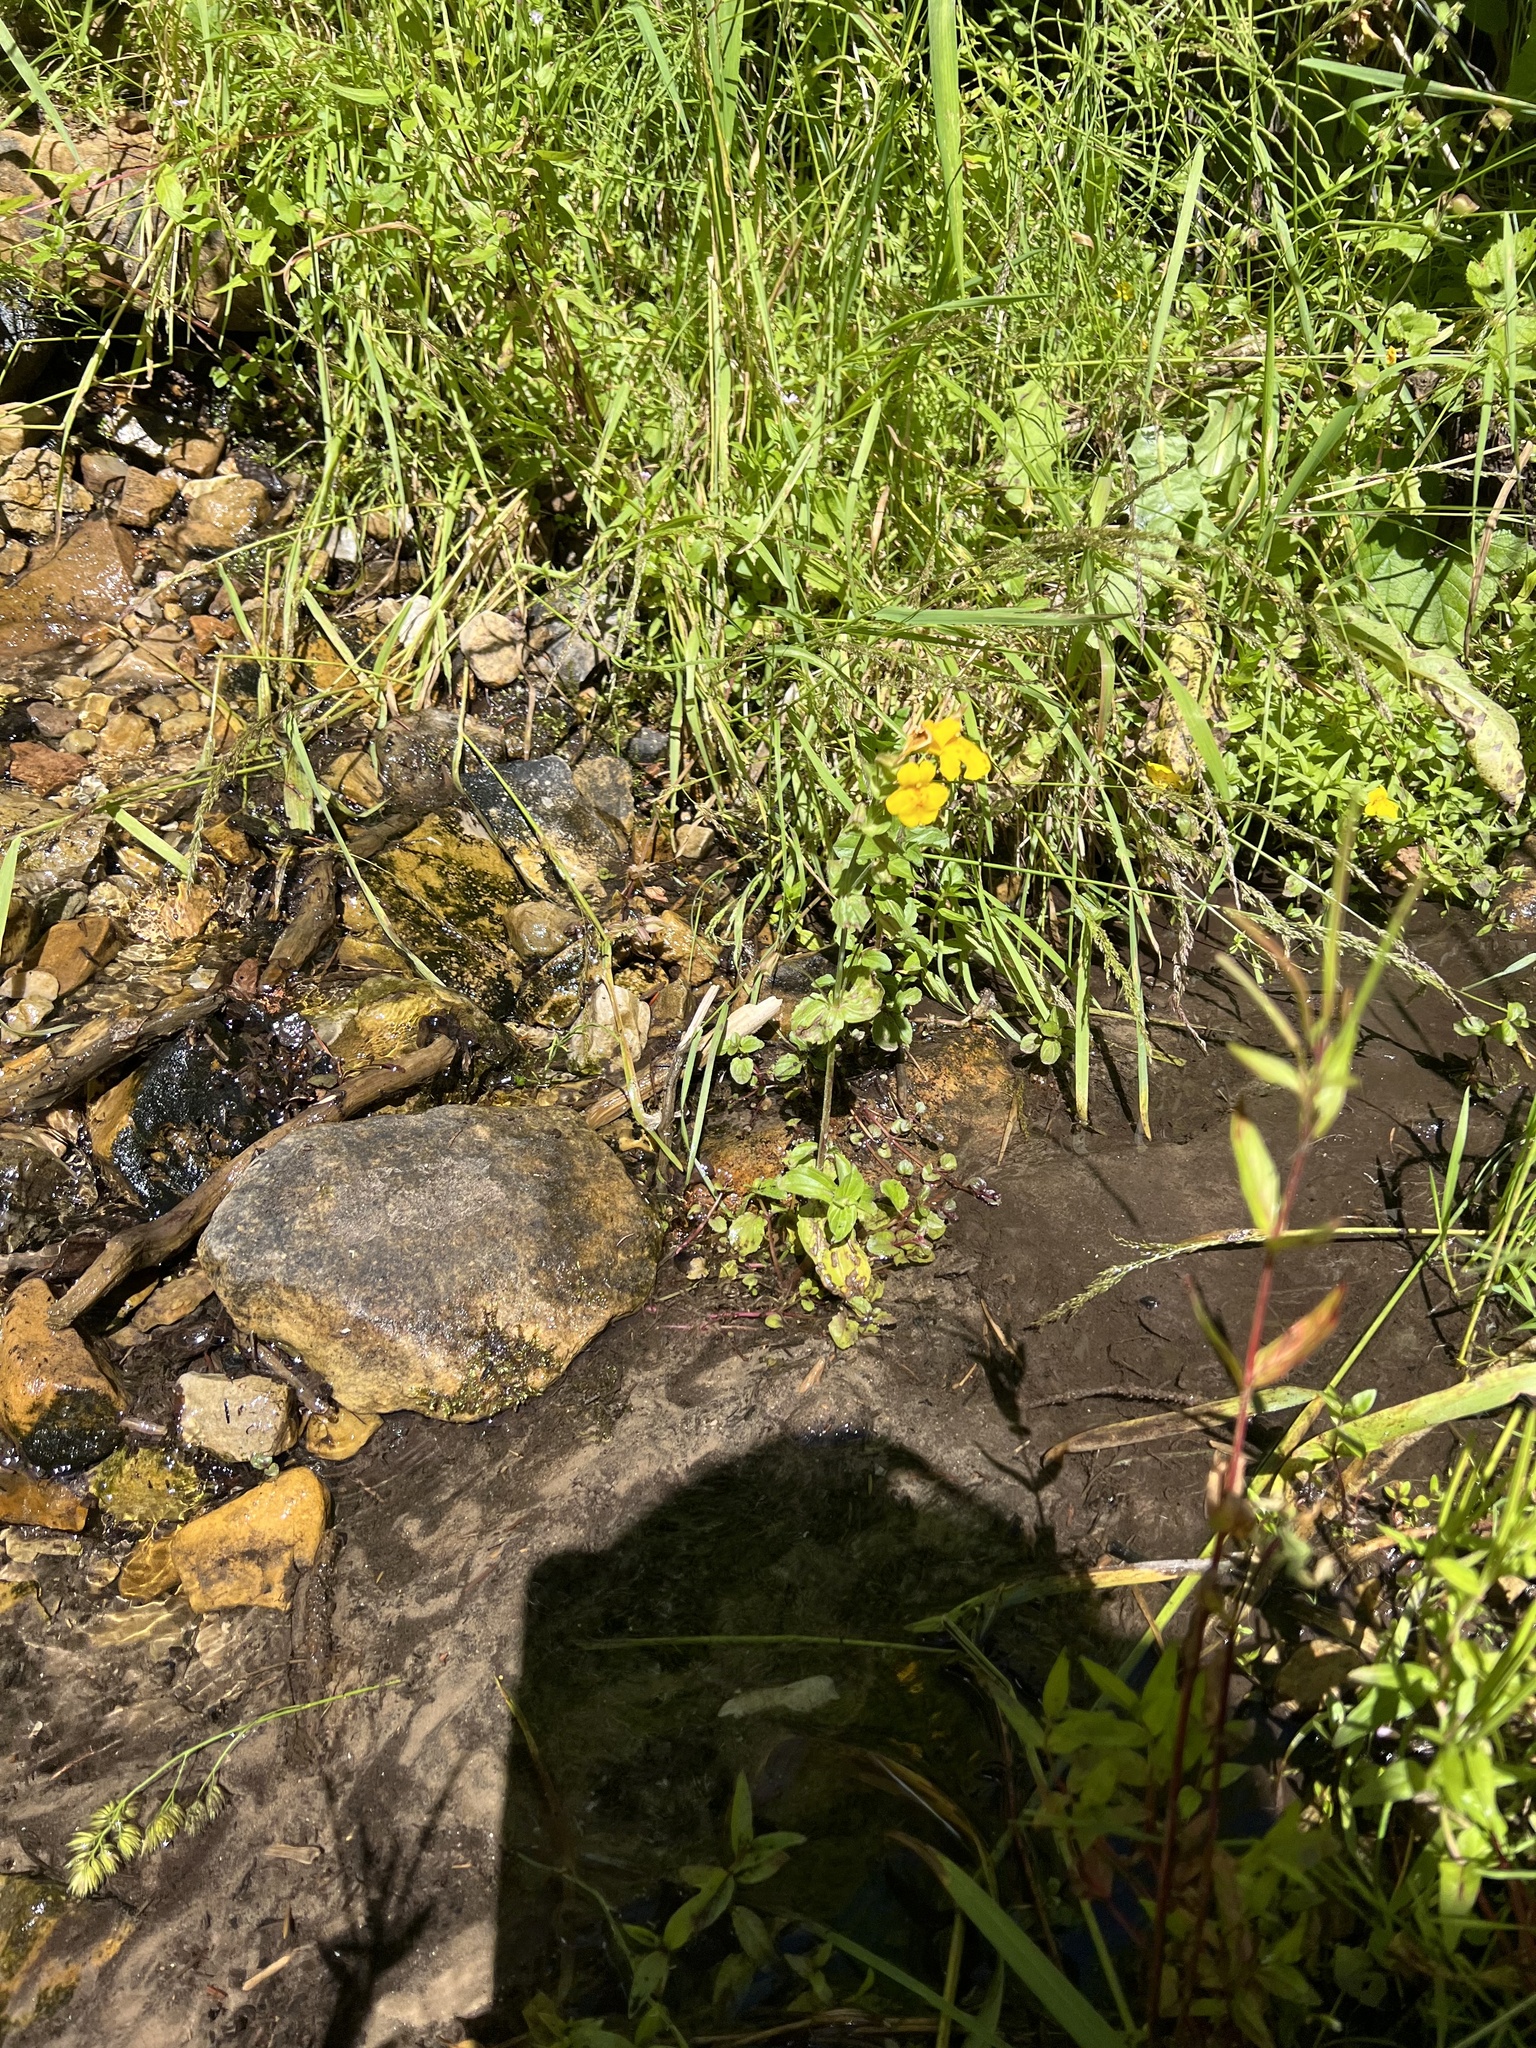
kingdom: Plantae
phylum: Tracheophyta
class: Magnoliopsida
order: Lamiales
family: Phrymaceae
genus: Erythranthe
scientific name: Erythranthe guttata
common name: Monkeyflower
